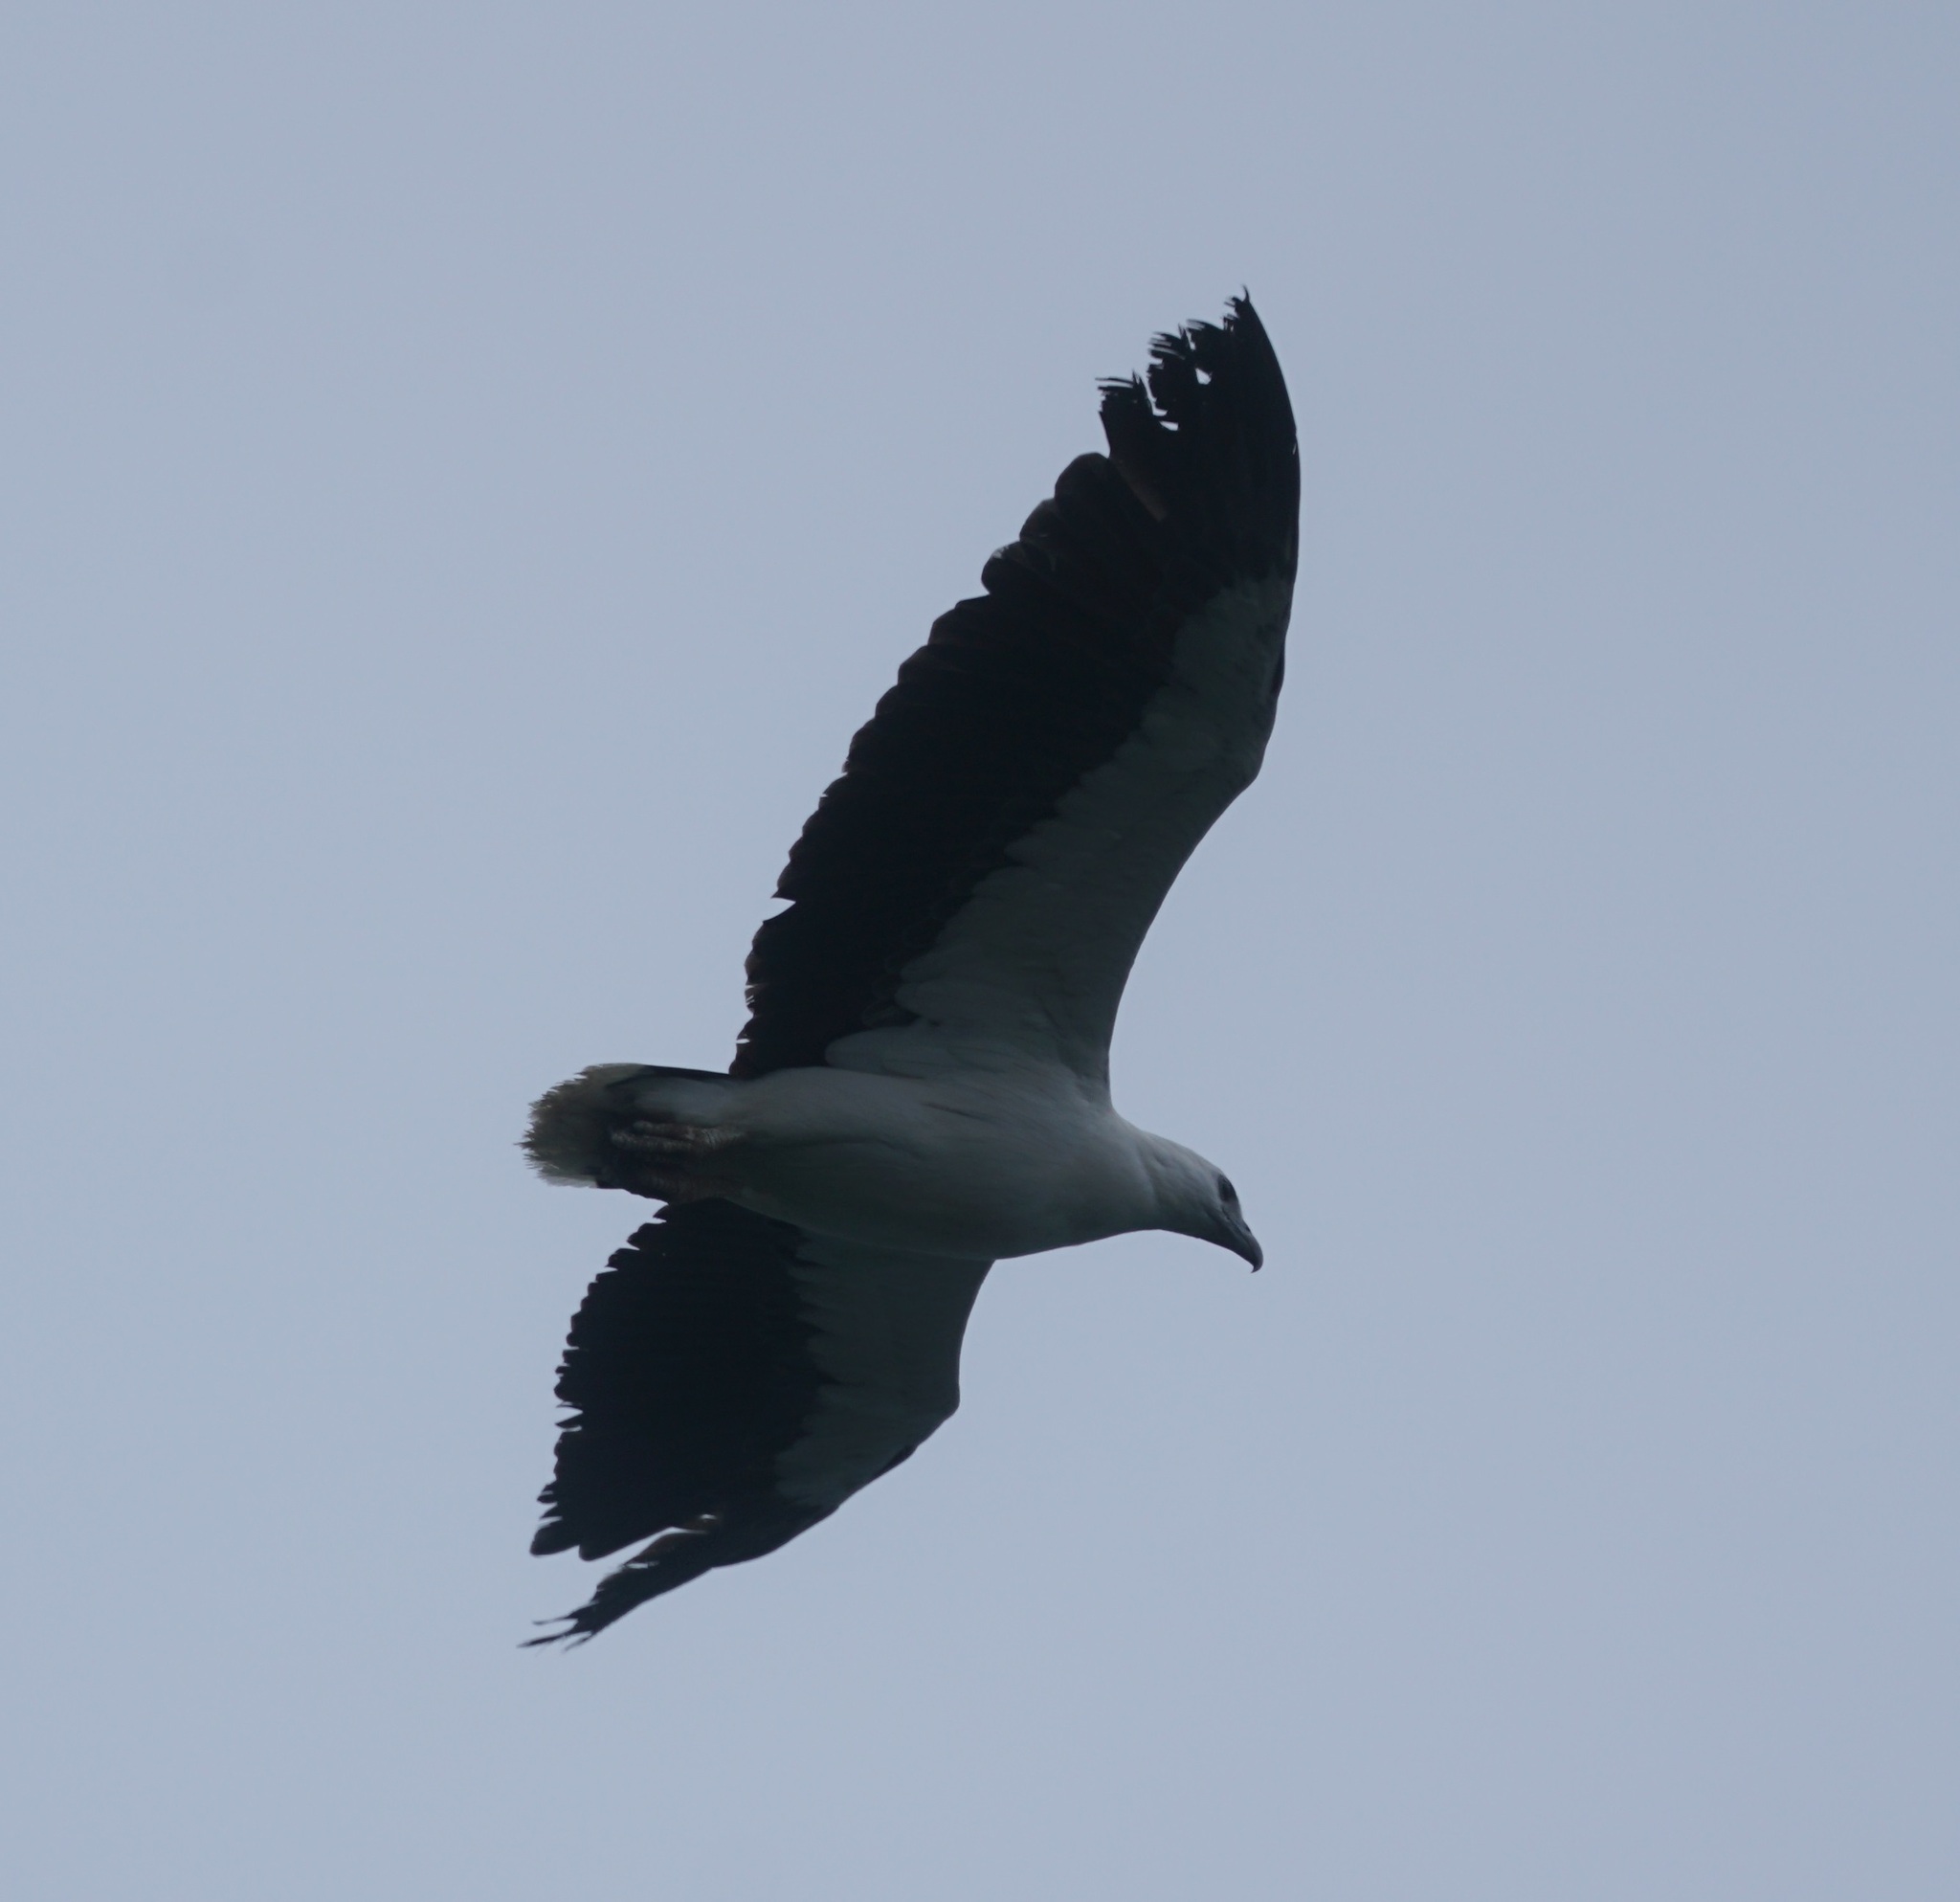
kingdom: Animalia
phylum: Chordata
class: Aves
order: Accipitriformes
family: Accipitridae
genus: Haliaeetus
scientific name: Haliaeetus leucogaster
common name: White-bellied sea eagle
